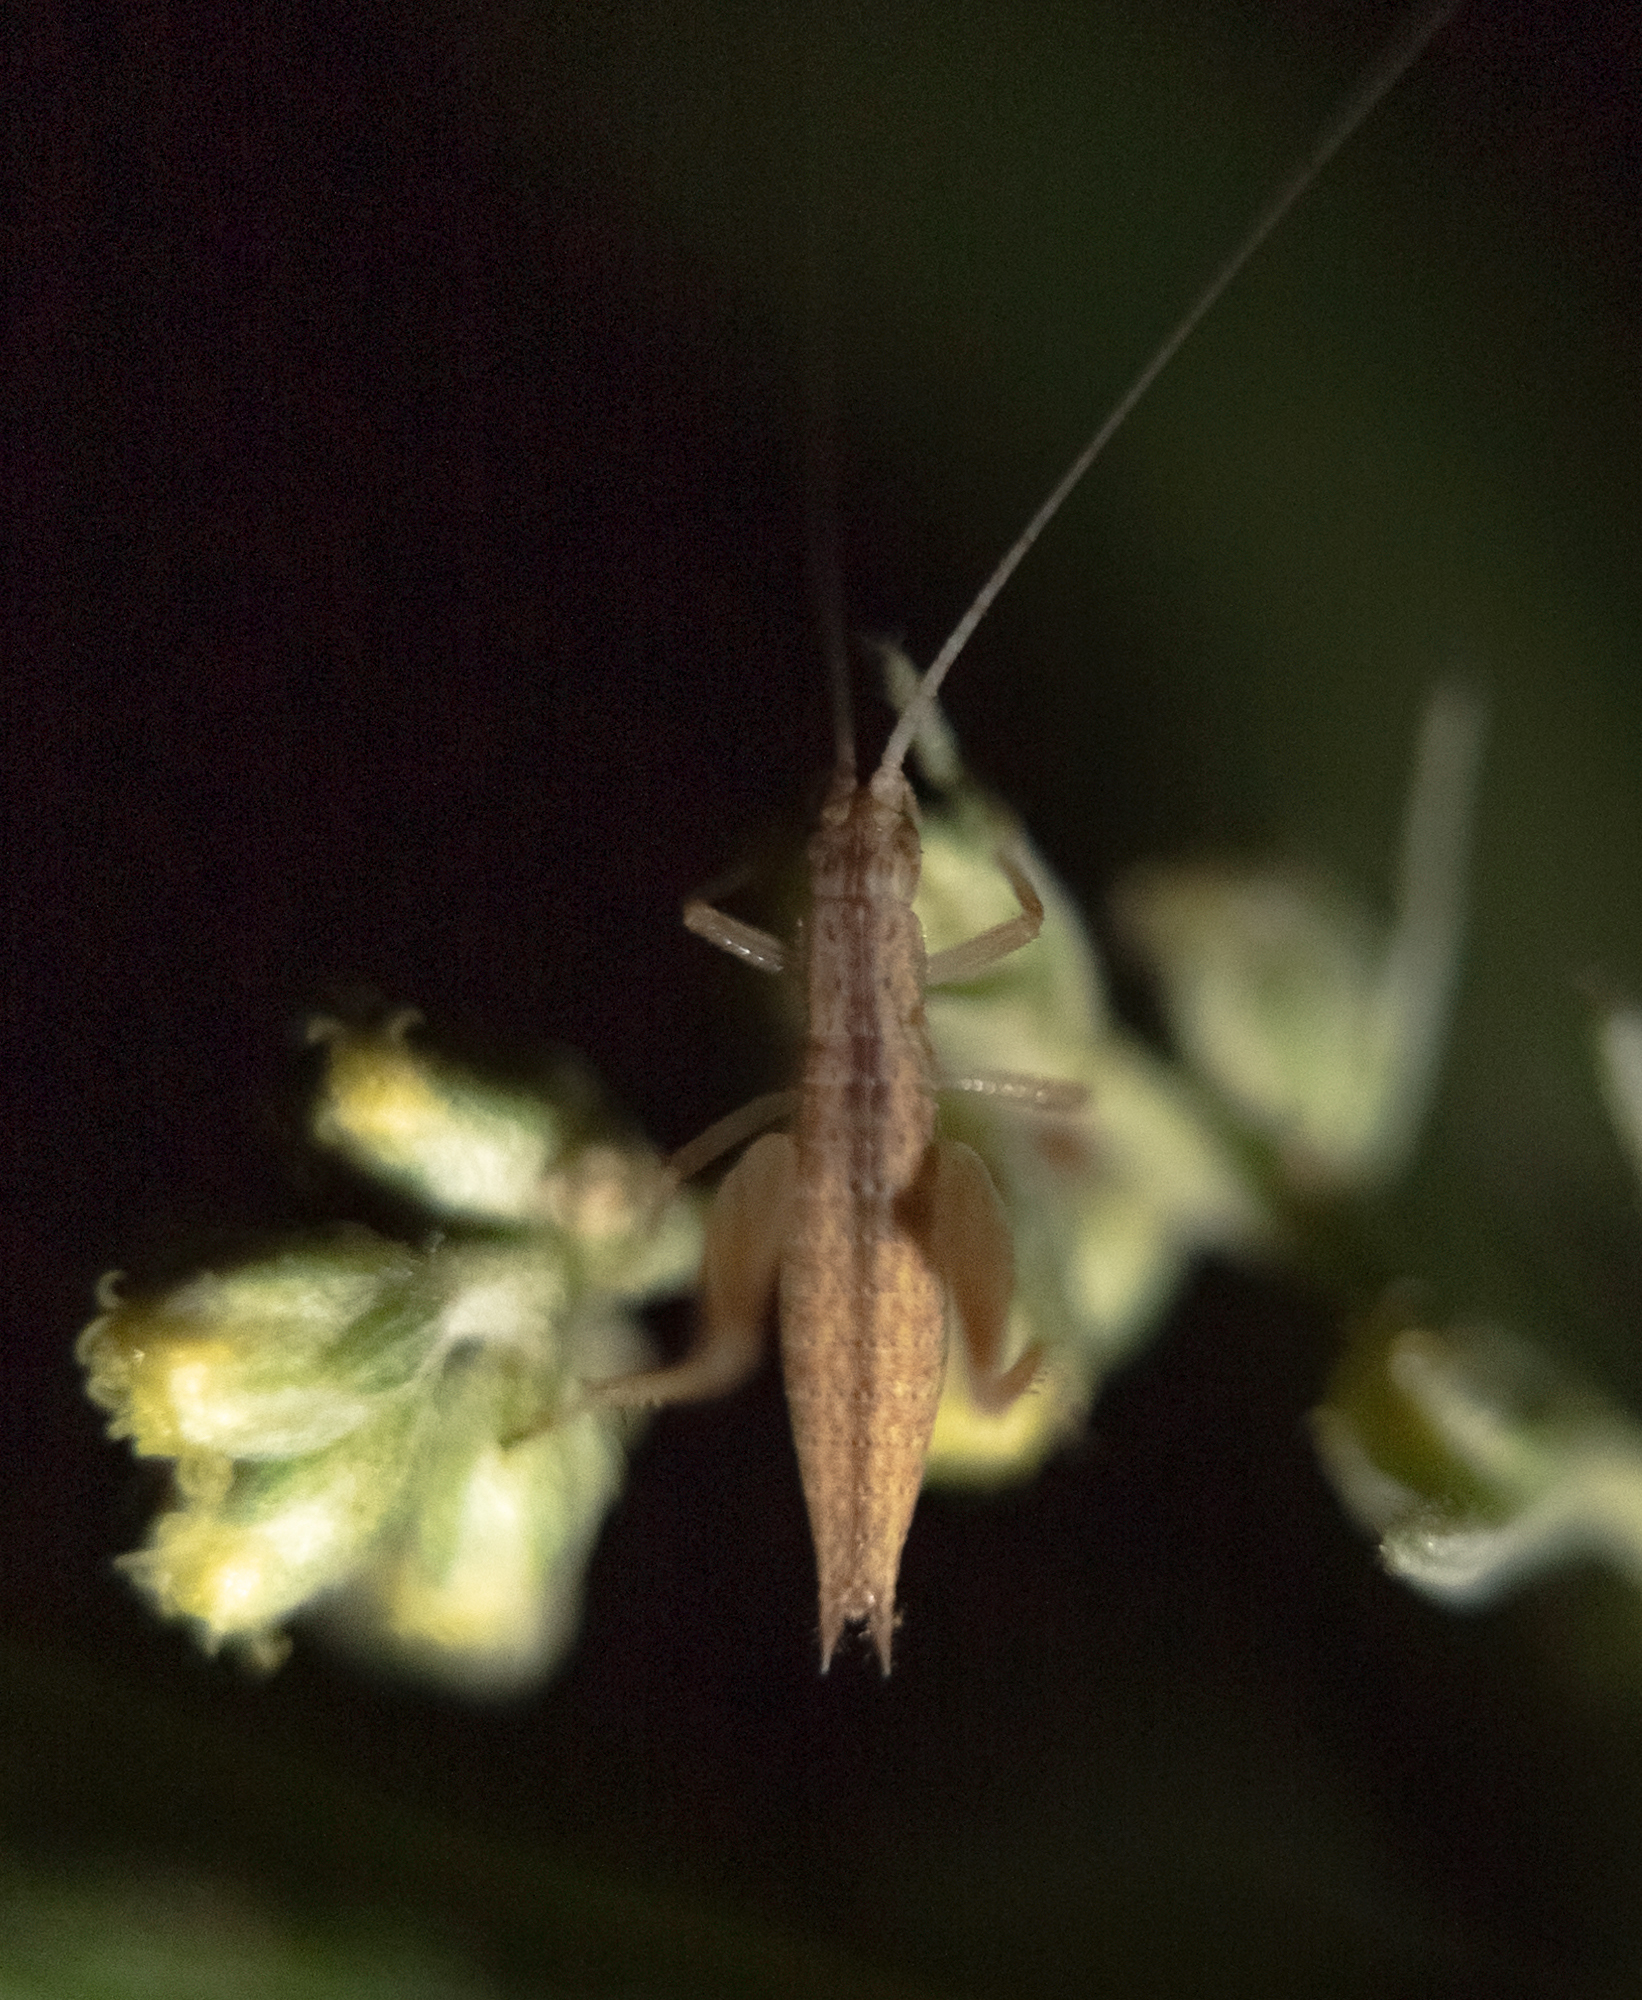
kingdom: Animalia
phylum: Arthropoda
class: Insecta
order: Orthoptera
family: Gryllidae
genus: Oecanthus
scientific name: Oecanthus californicus
